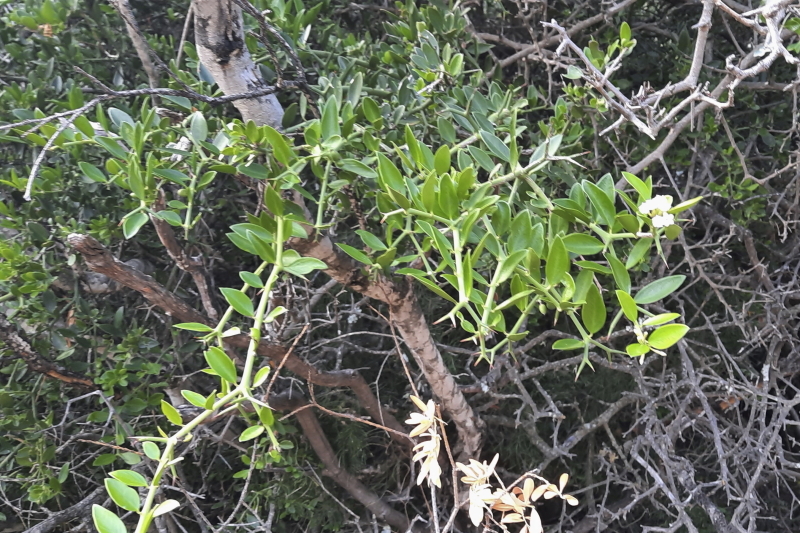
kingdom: Plantae
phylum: Tracheophyta
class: Magnoliopsida
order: Gentianales
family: Apocynaceae
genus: Carissa
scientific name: Carissa haematocarpa
